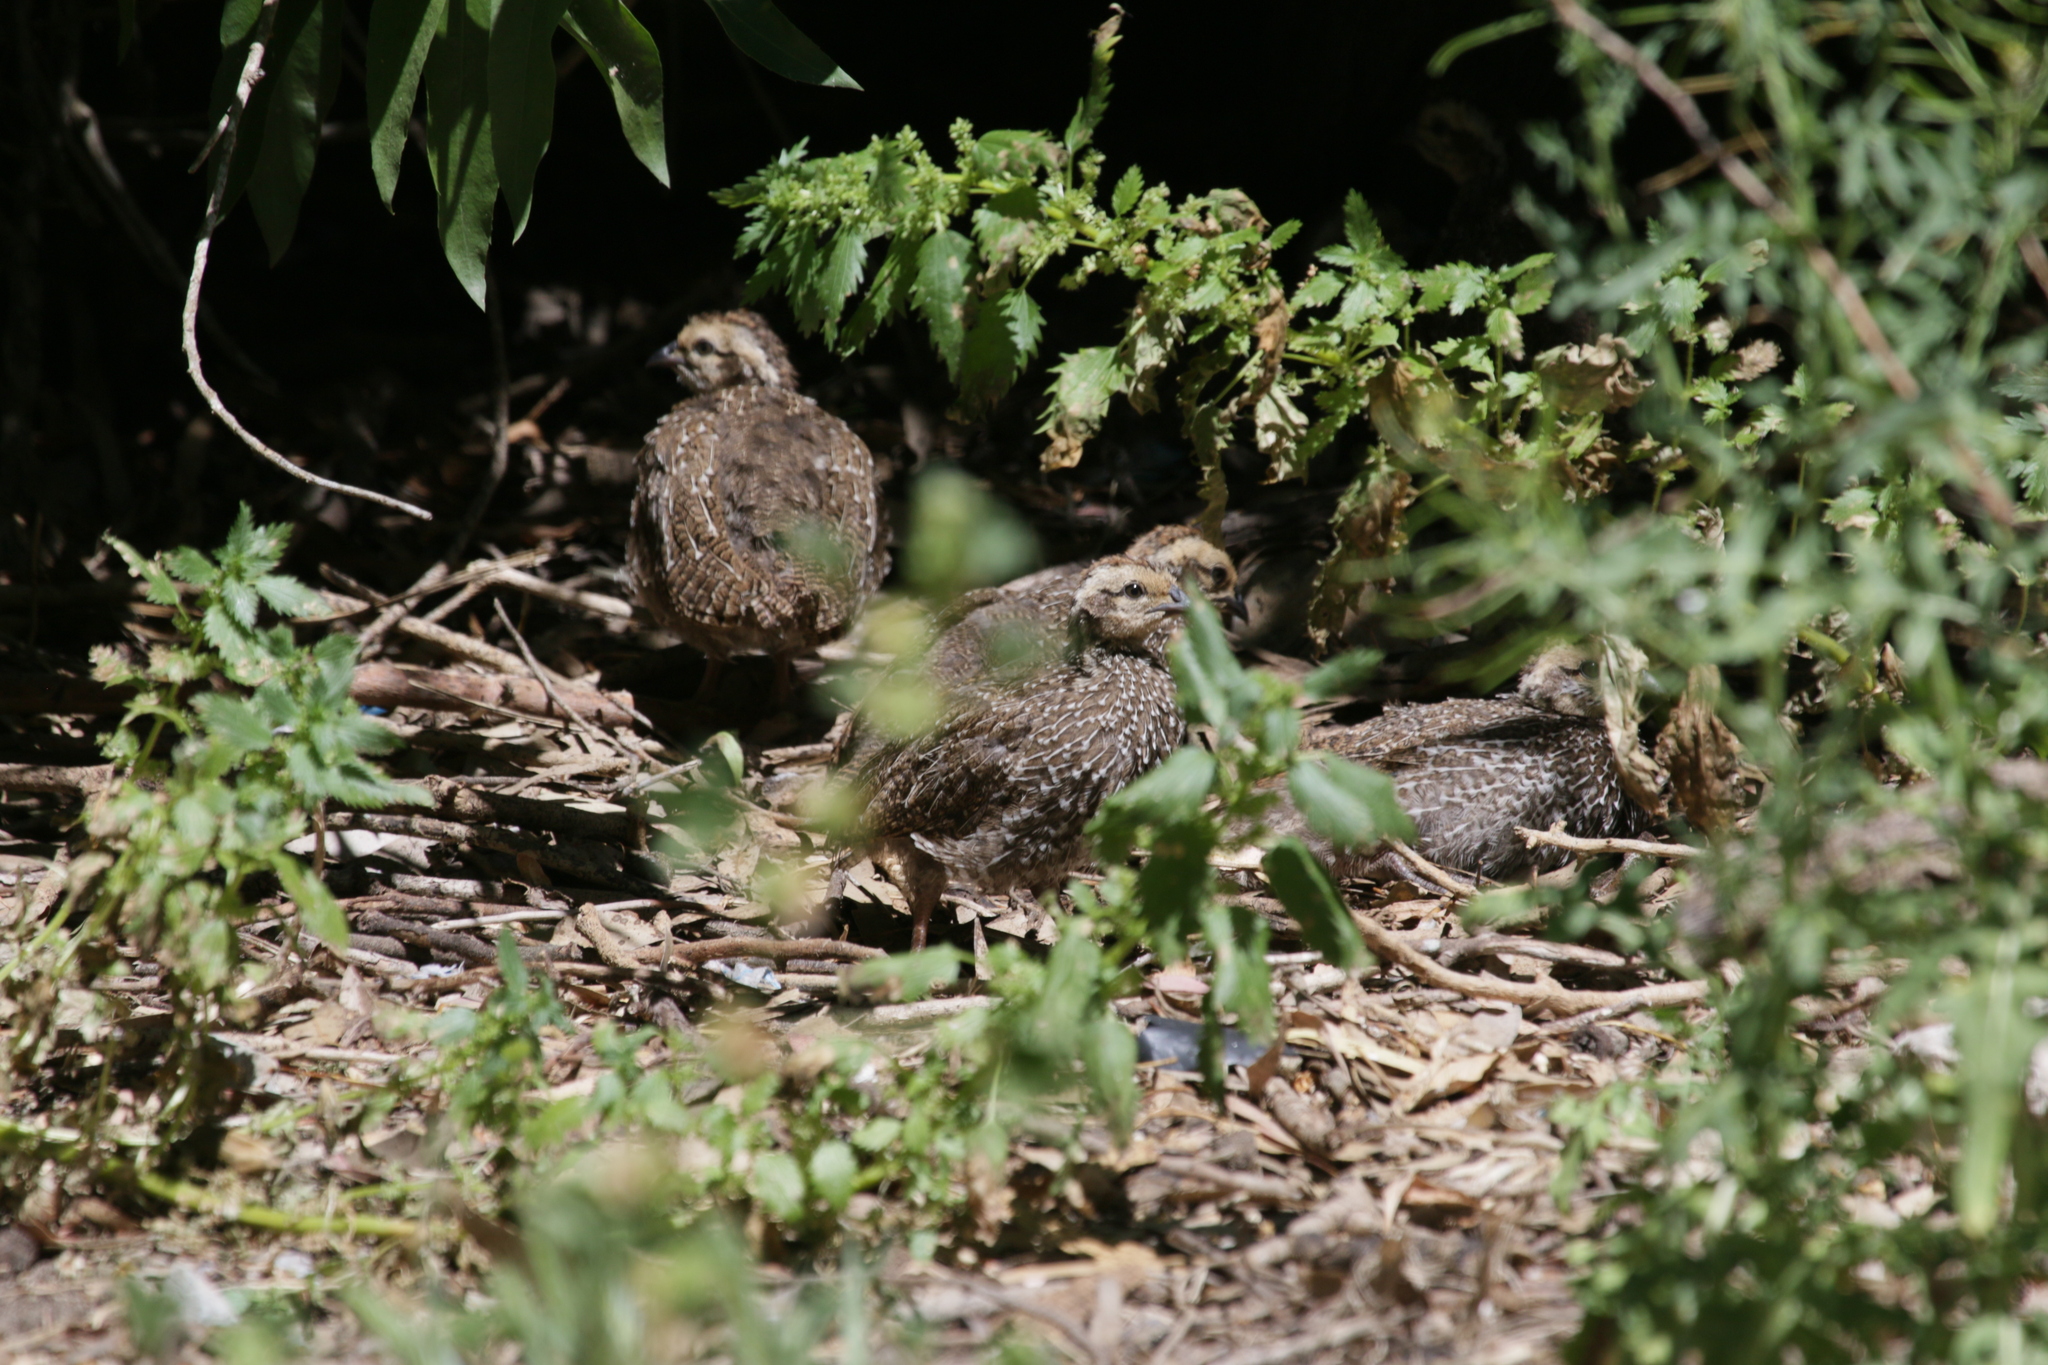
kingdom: Animalia
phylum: Chordata
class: Aves
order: Galliformes
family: Phasianidae
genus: Pternistis
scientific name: Pternistis capensis
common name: Cape spurfowl
